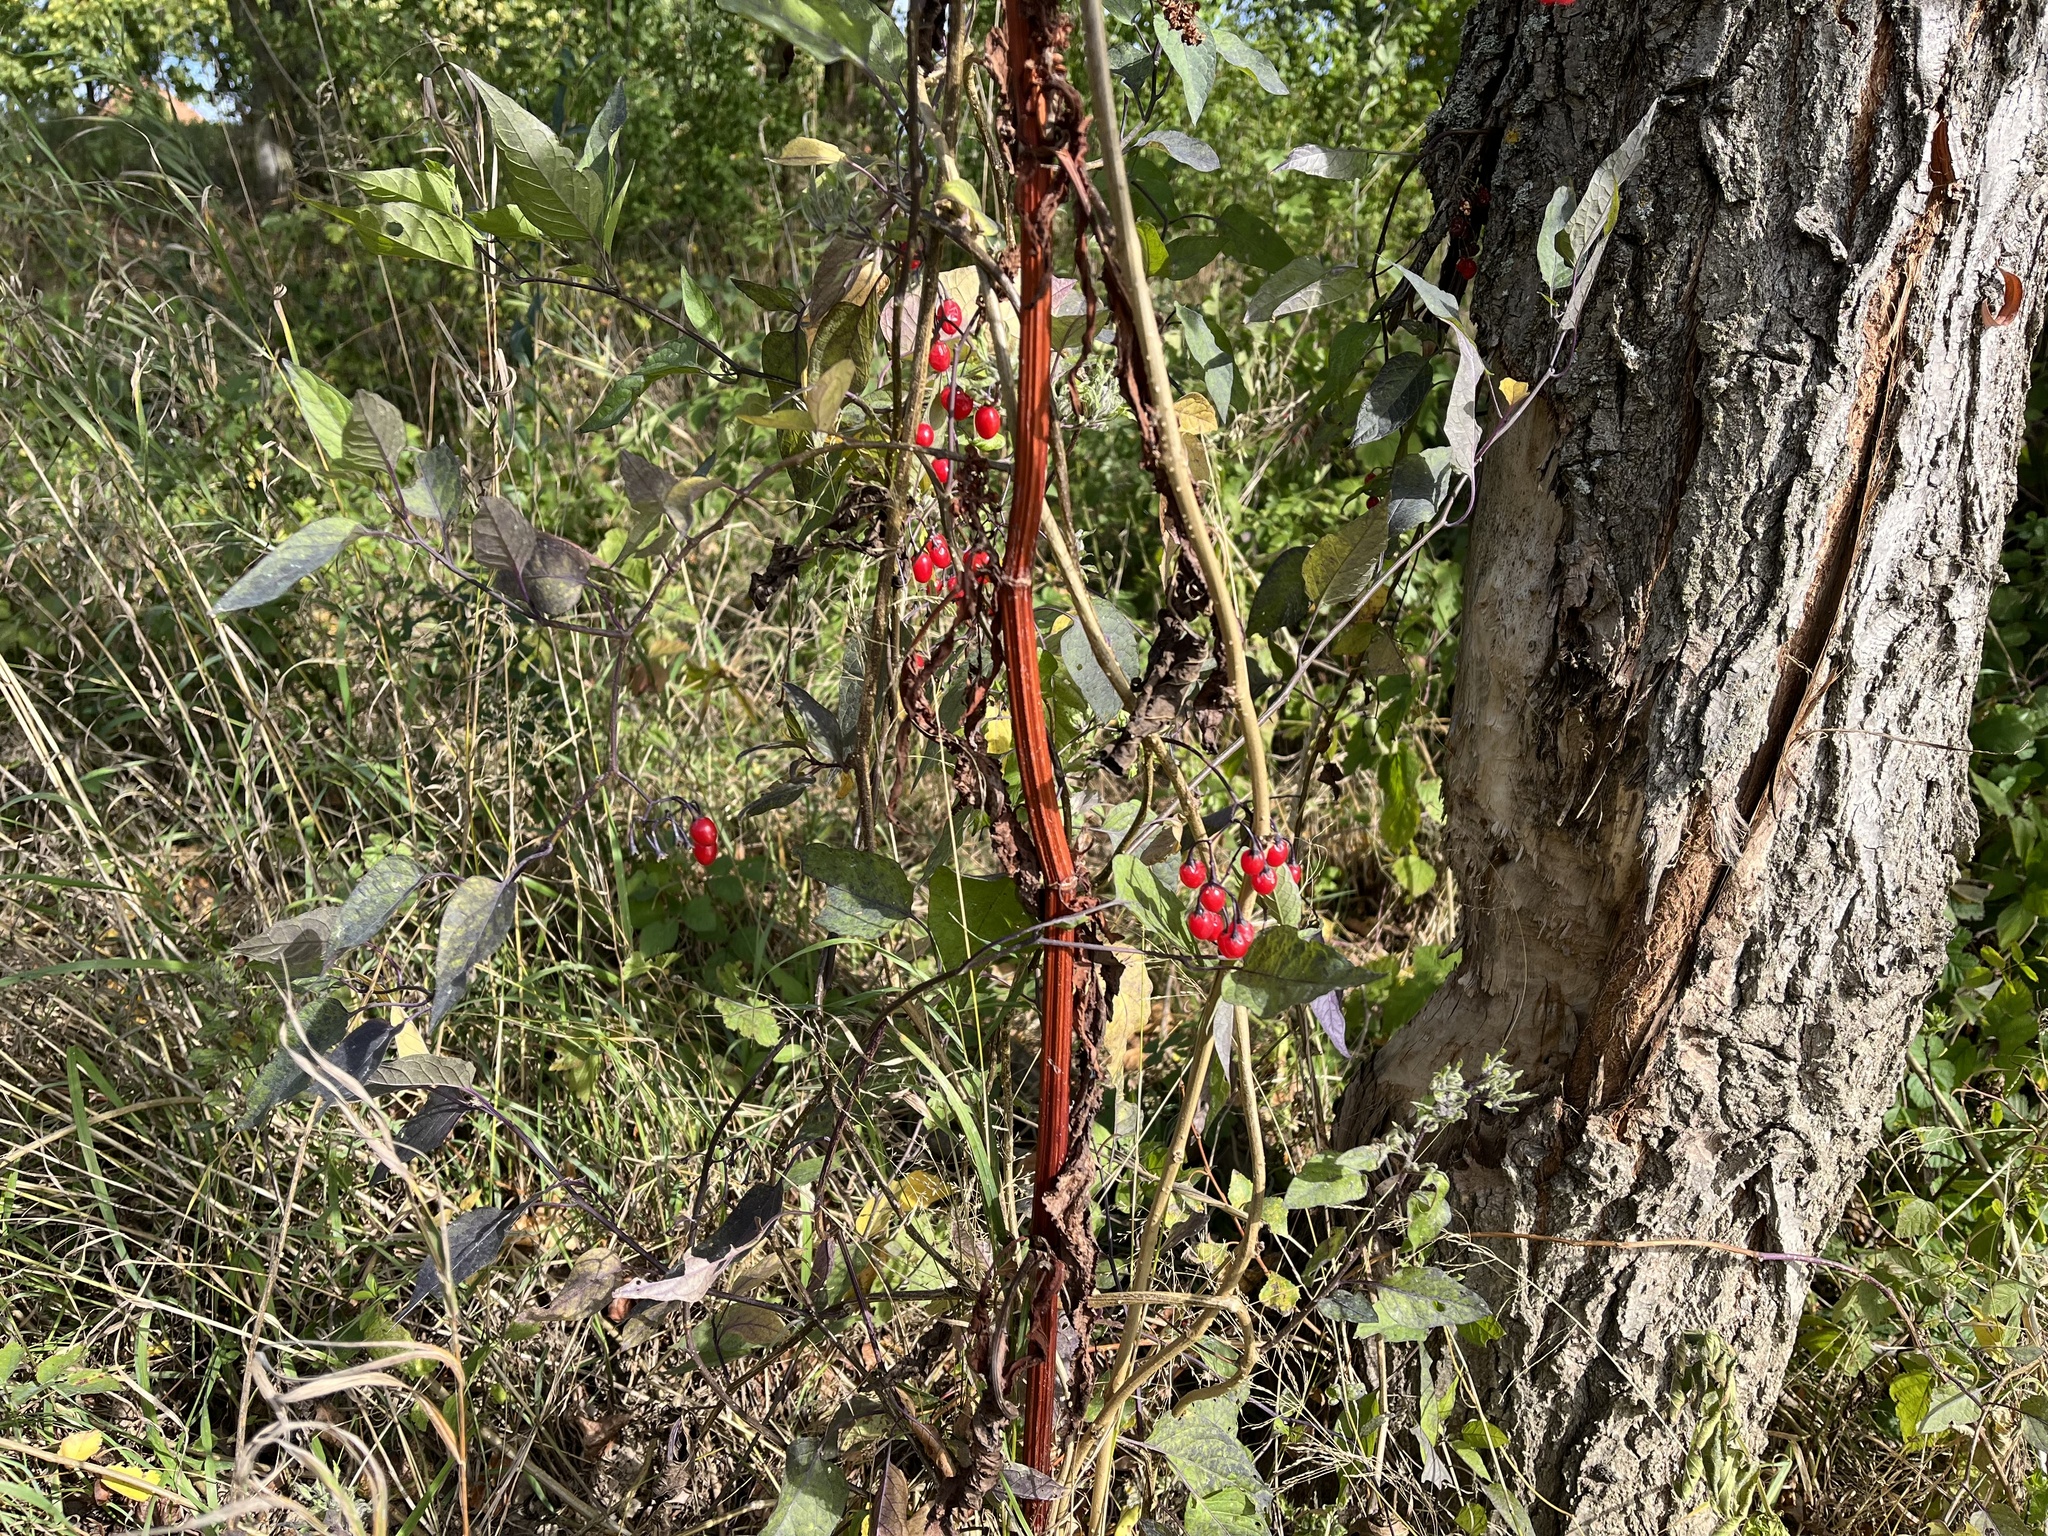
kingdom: Plantae
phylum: Tracheophyta
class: Magnoliopsida
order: Solanales
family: Solanaceae
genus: Solanum
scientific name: Solanum dulcamara
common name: Climbing nightshade
